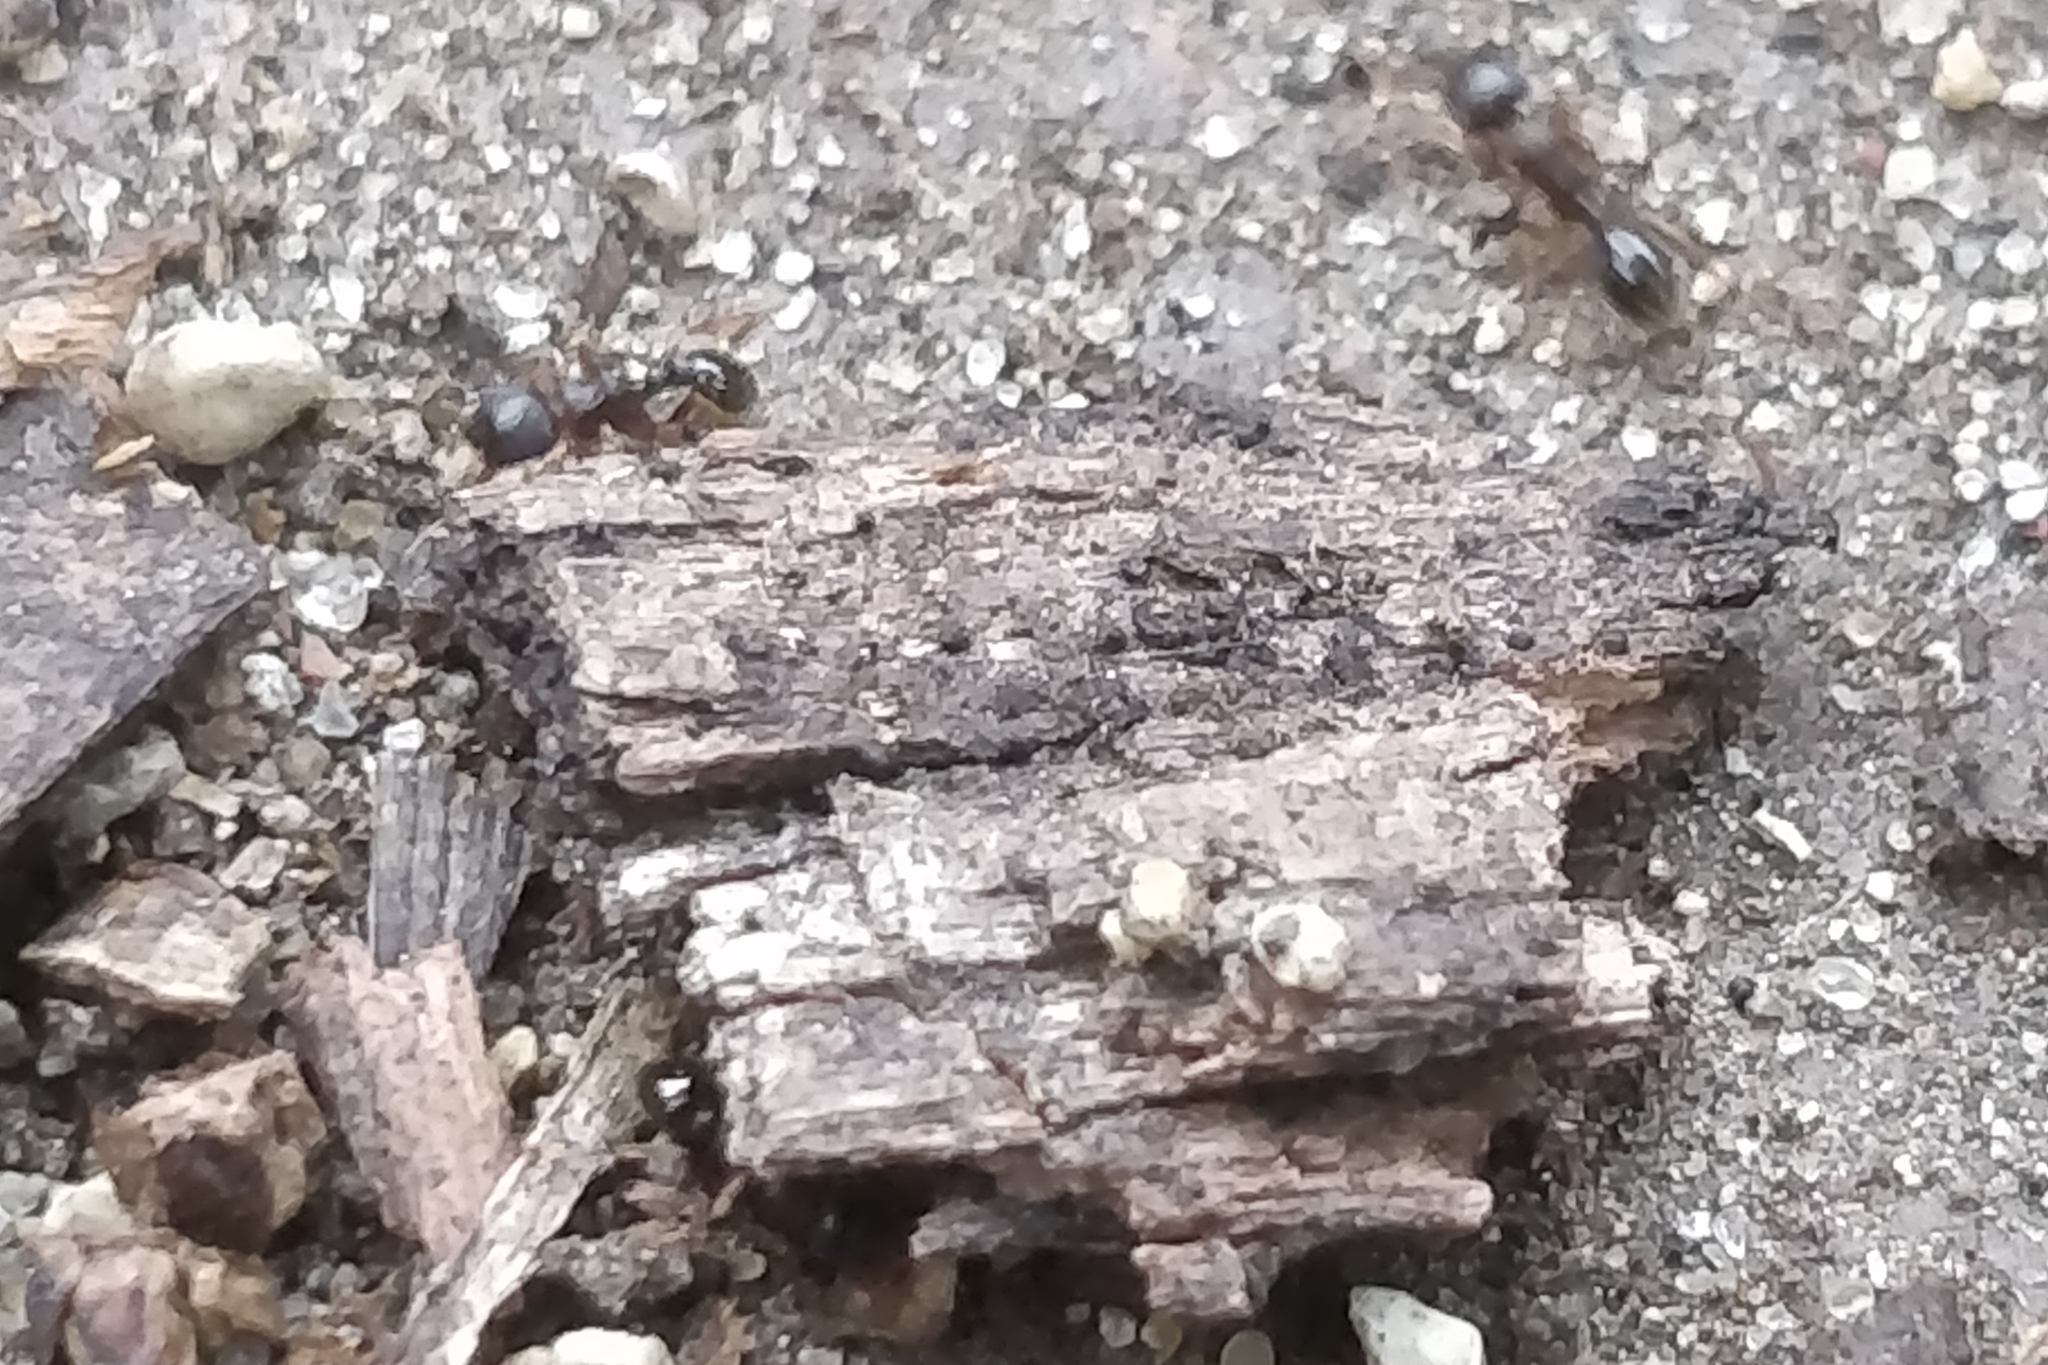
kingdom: Animalia
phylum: Arthropoda
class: Insecta
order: Hymenoptera
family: Formicidae
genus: Tetramorium
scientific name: Tetramorium immigrans
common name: Pavement ant
